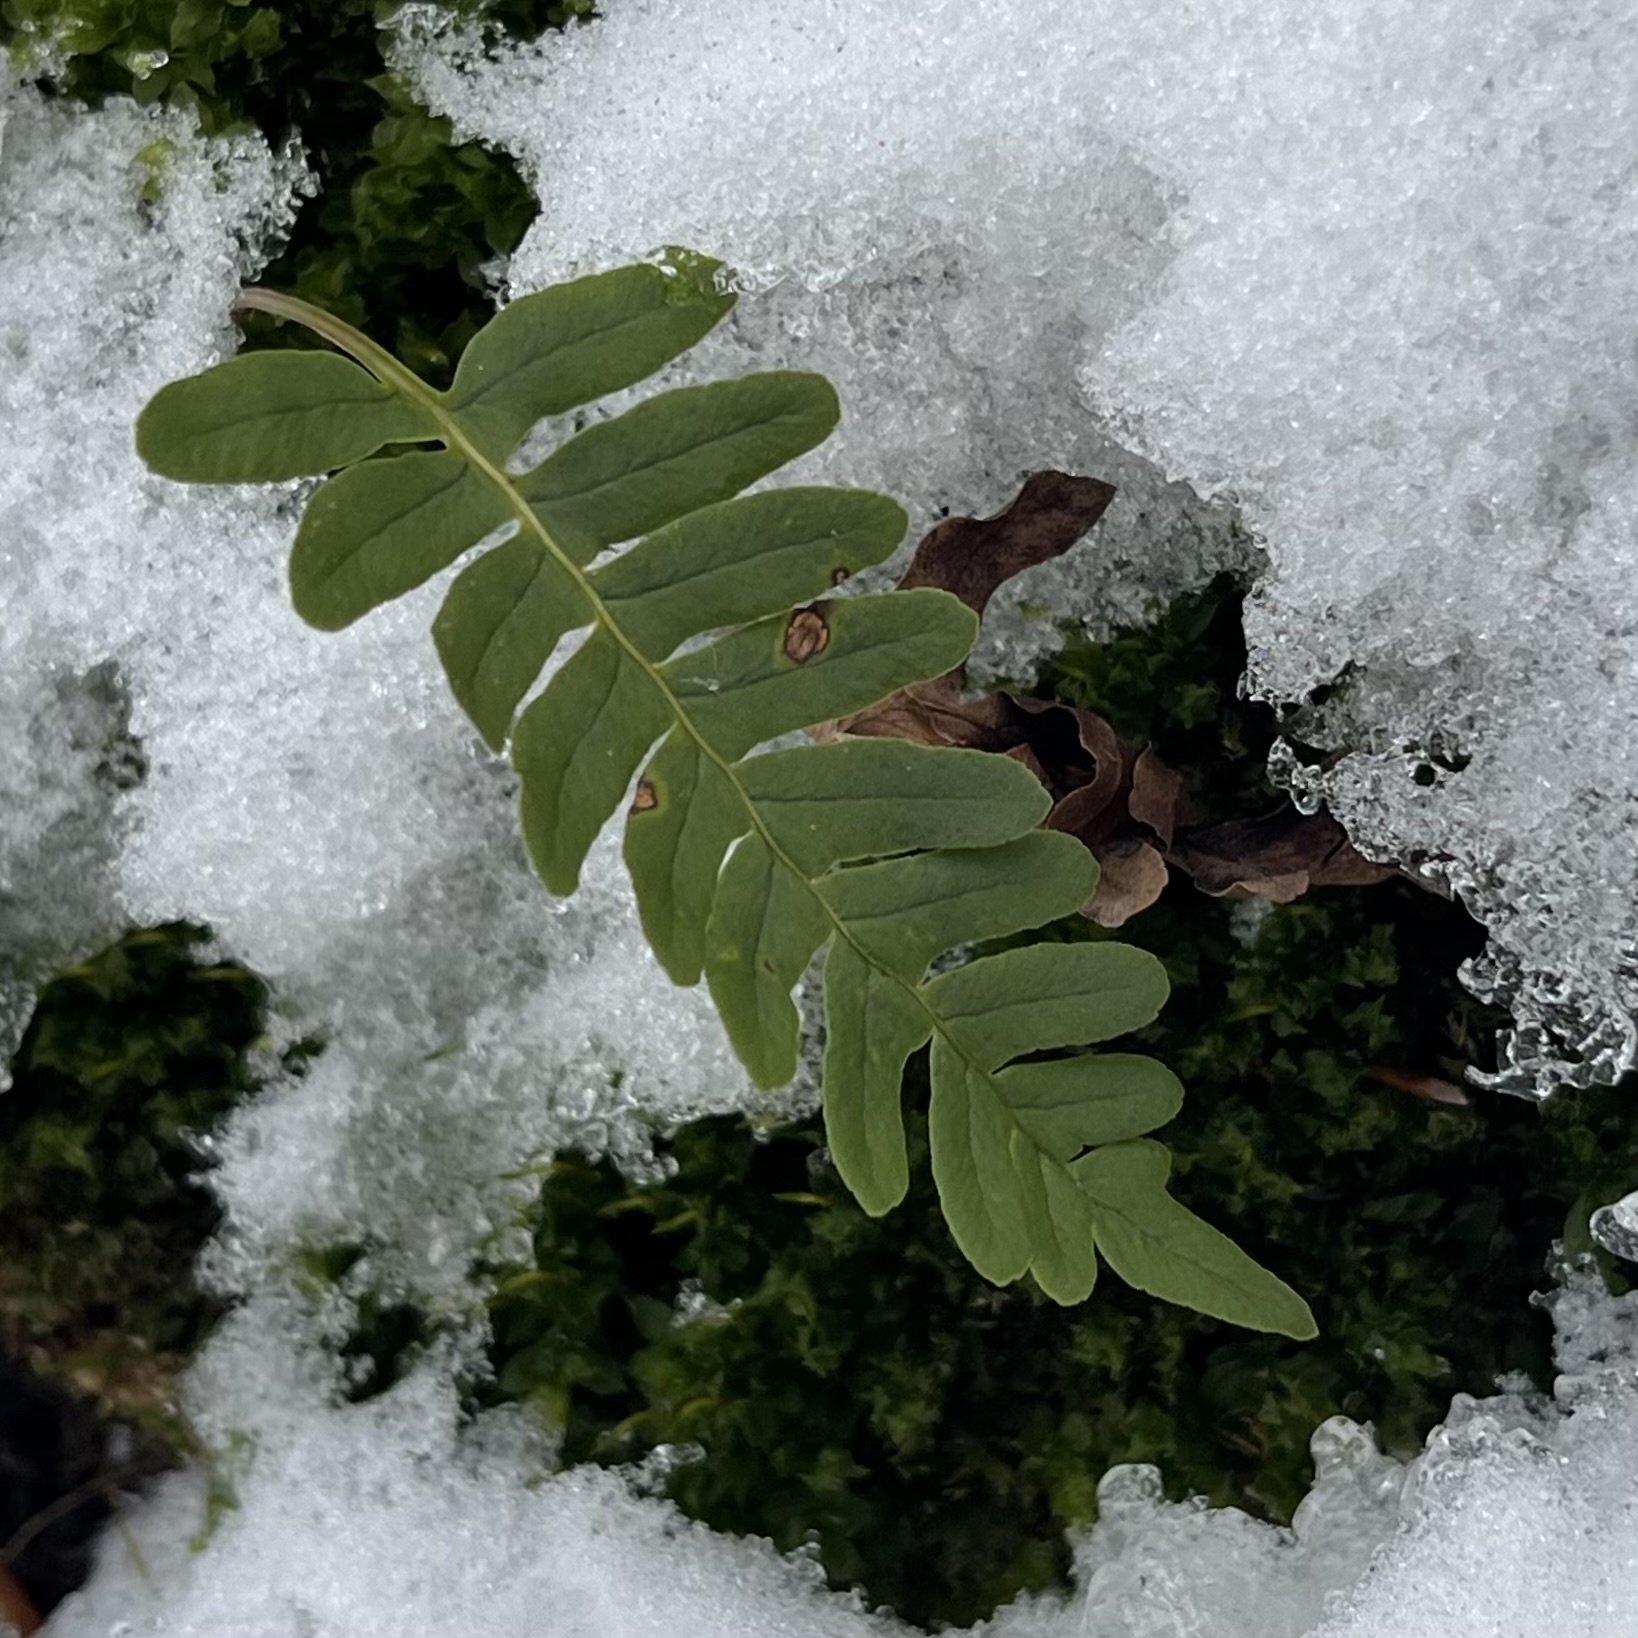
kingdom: Plantae
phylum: Tracheophyta
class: Polypodiopsida
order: Polypodiales
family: Polypodiaceae
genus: Polypodium
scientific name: Polypodium vulgare
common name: Common polypody
